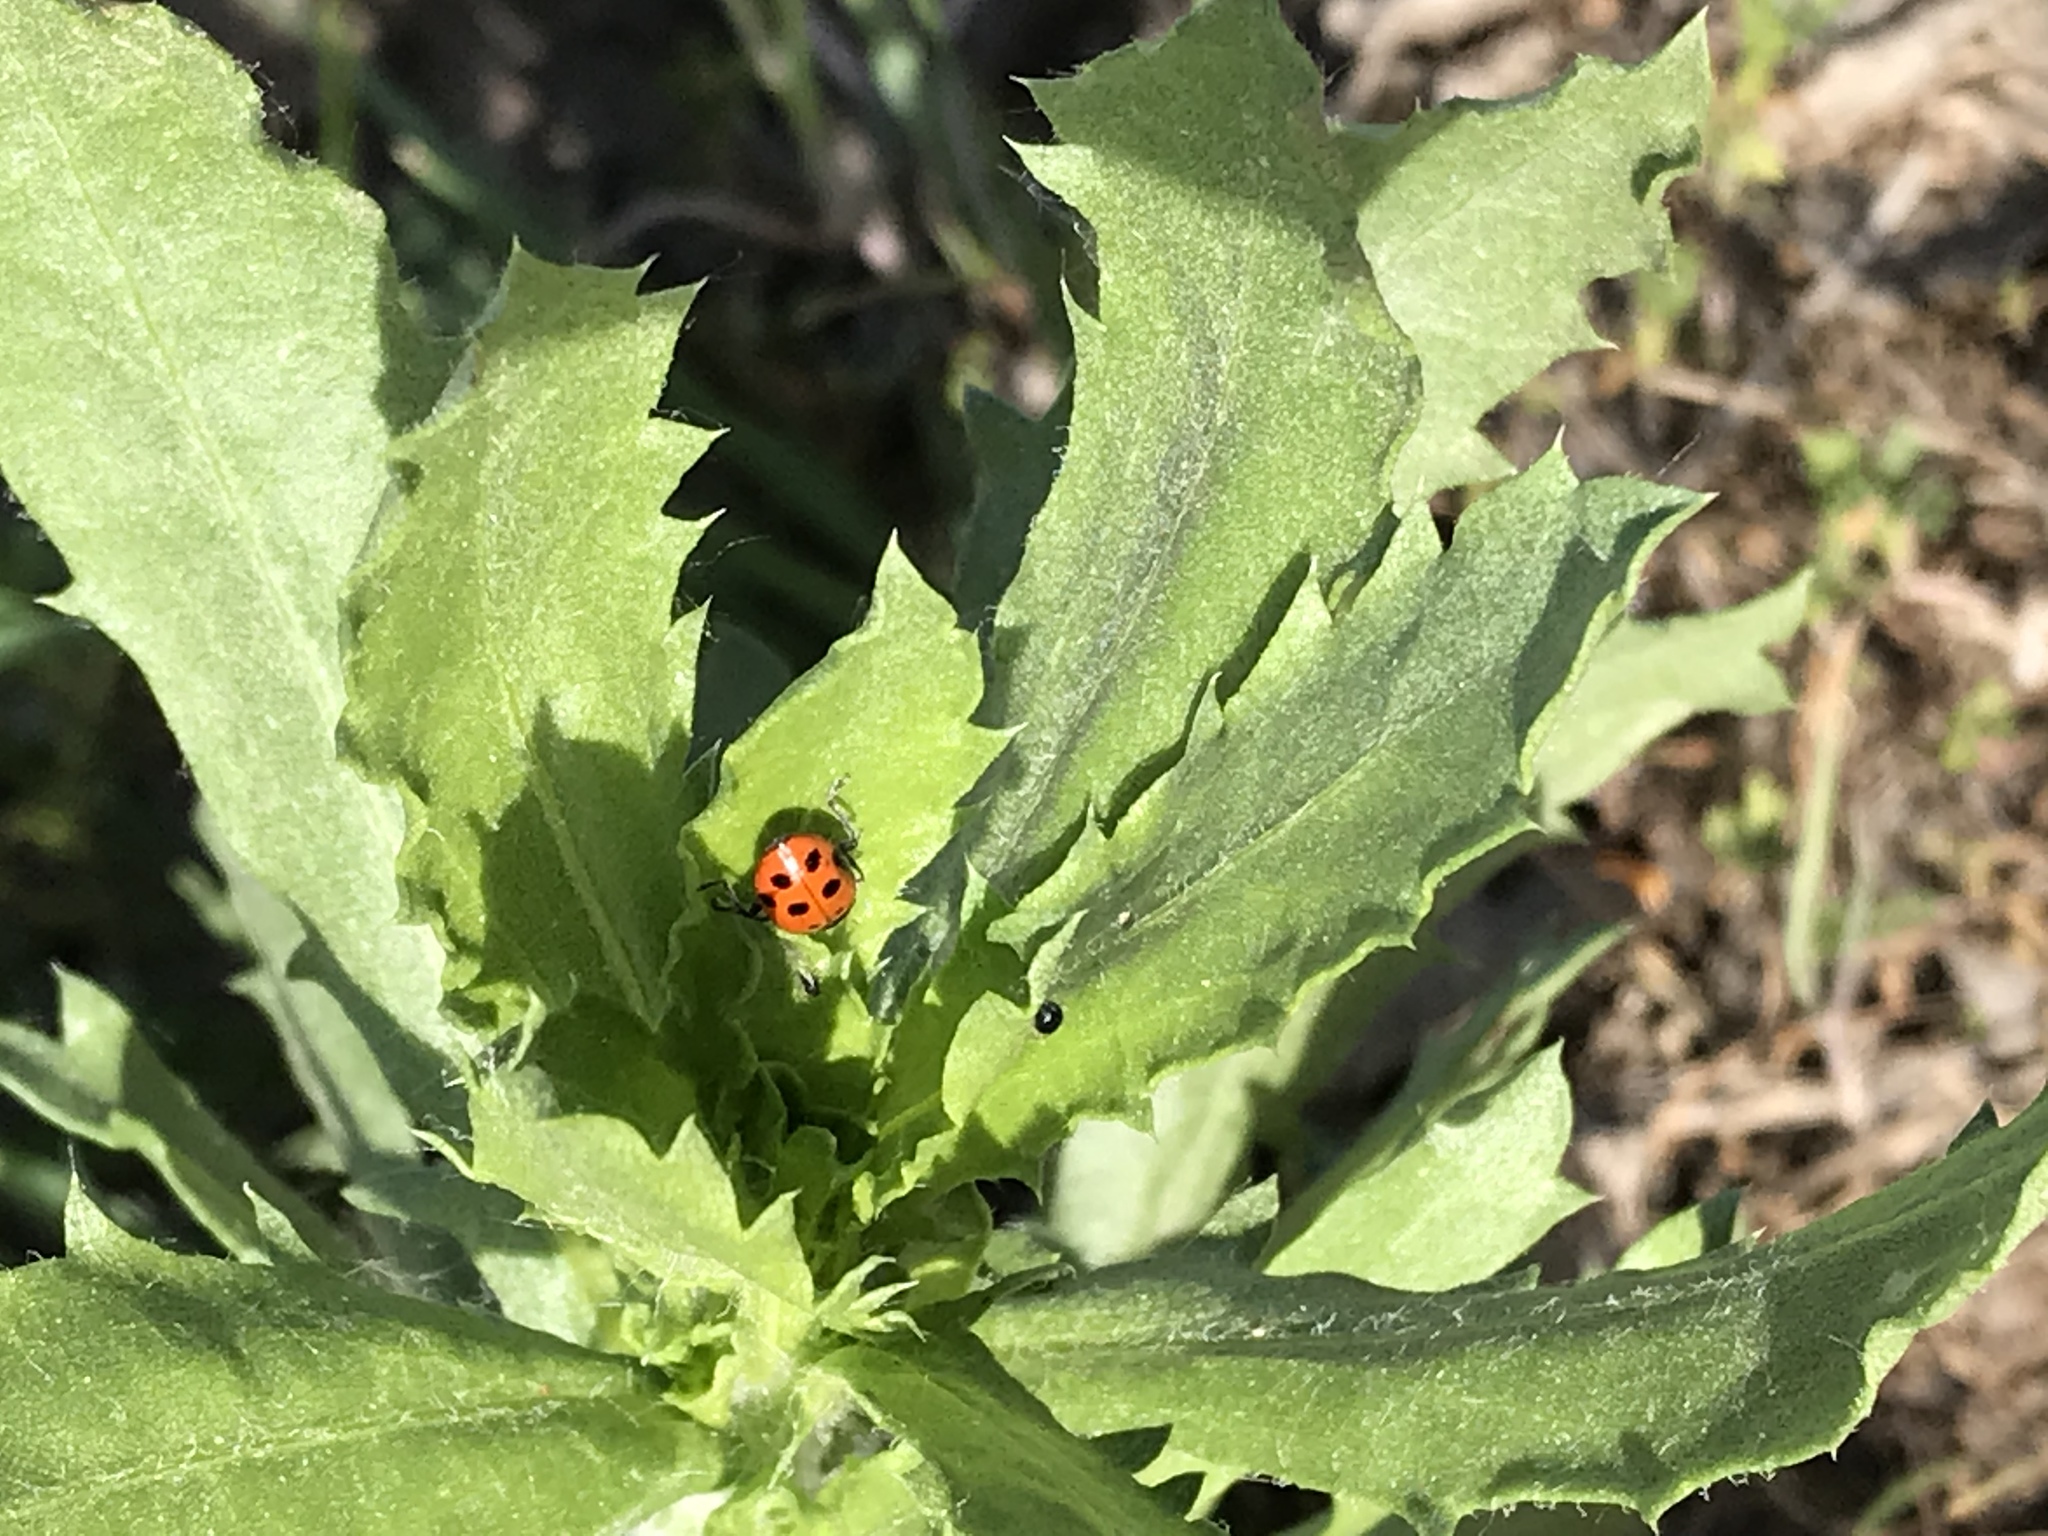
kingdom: Animalia
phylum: Arthropoda
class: Insecta
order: Coleoptera
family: Coccinellidae
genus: Hippodamia
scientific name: Hippodamia convergens
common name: Convergent lady beetle
